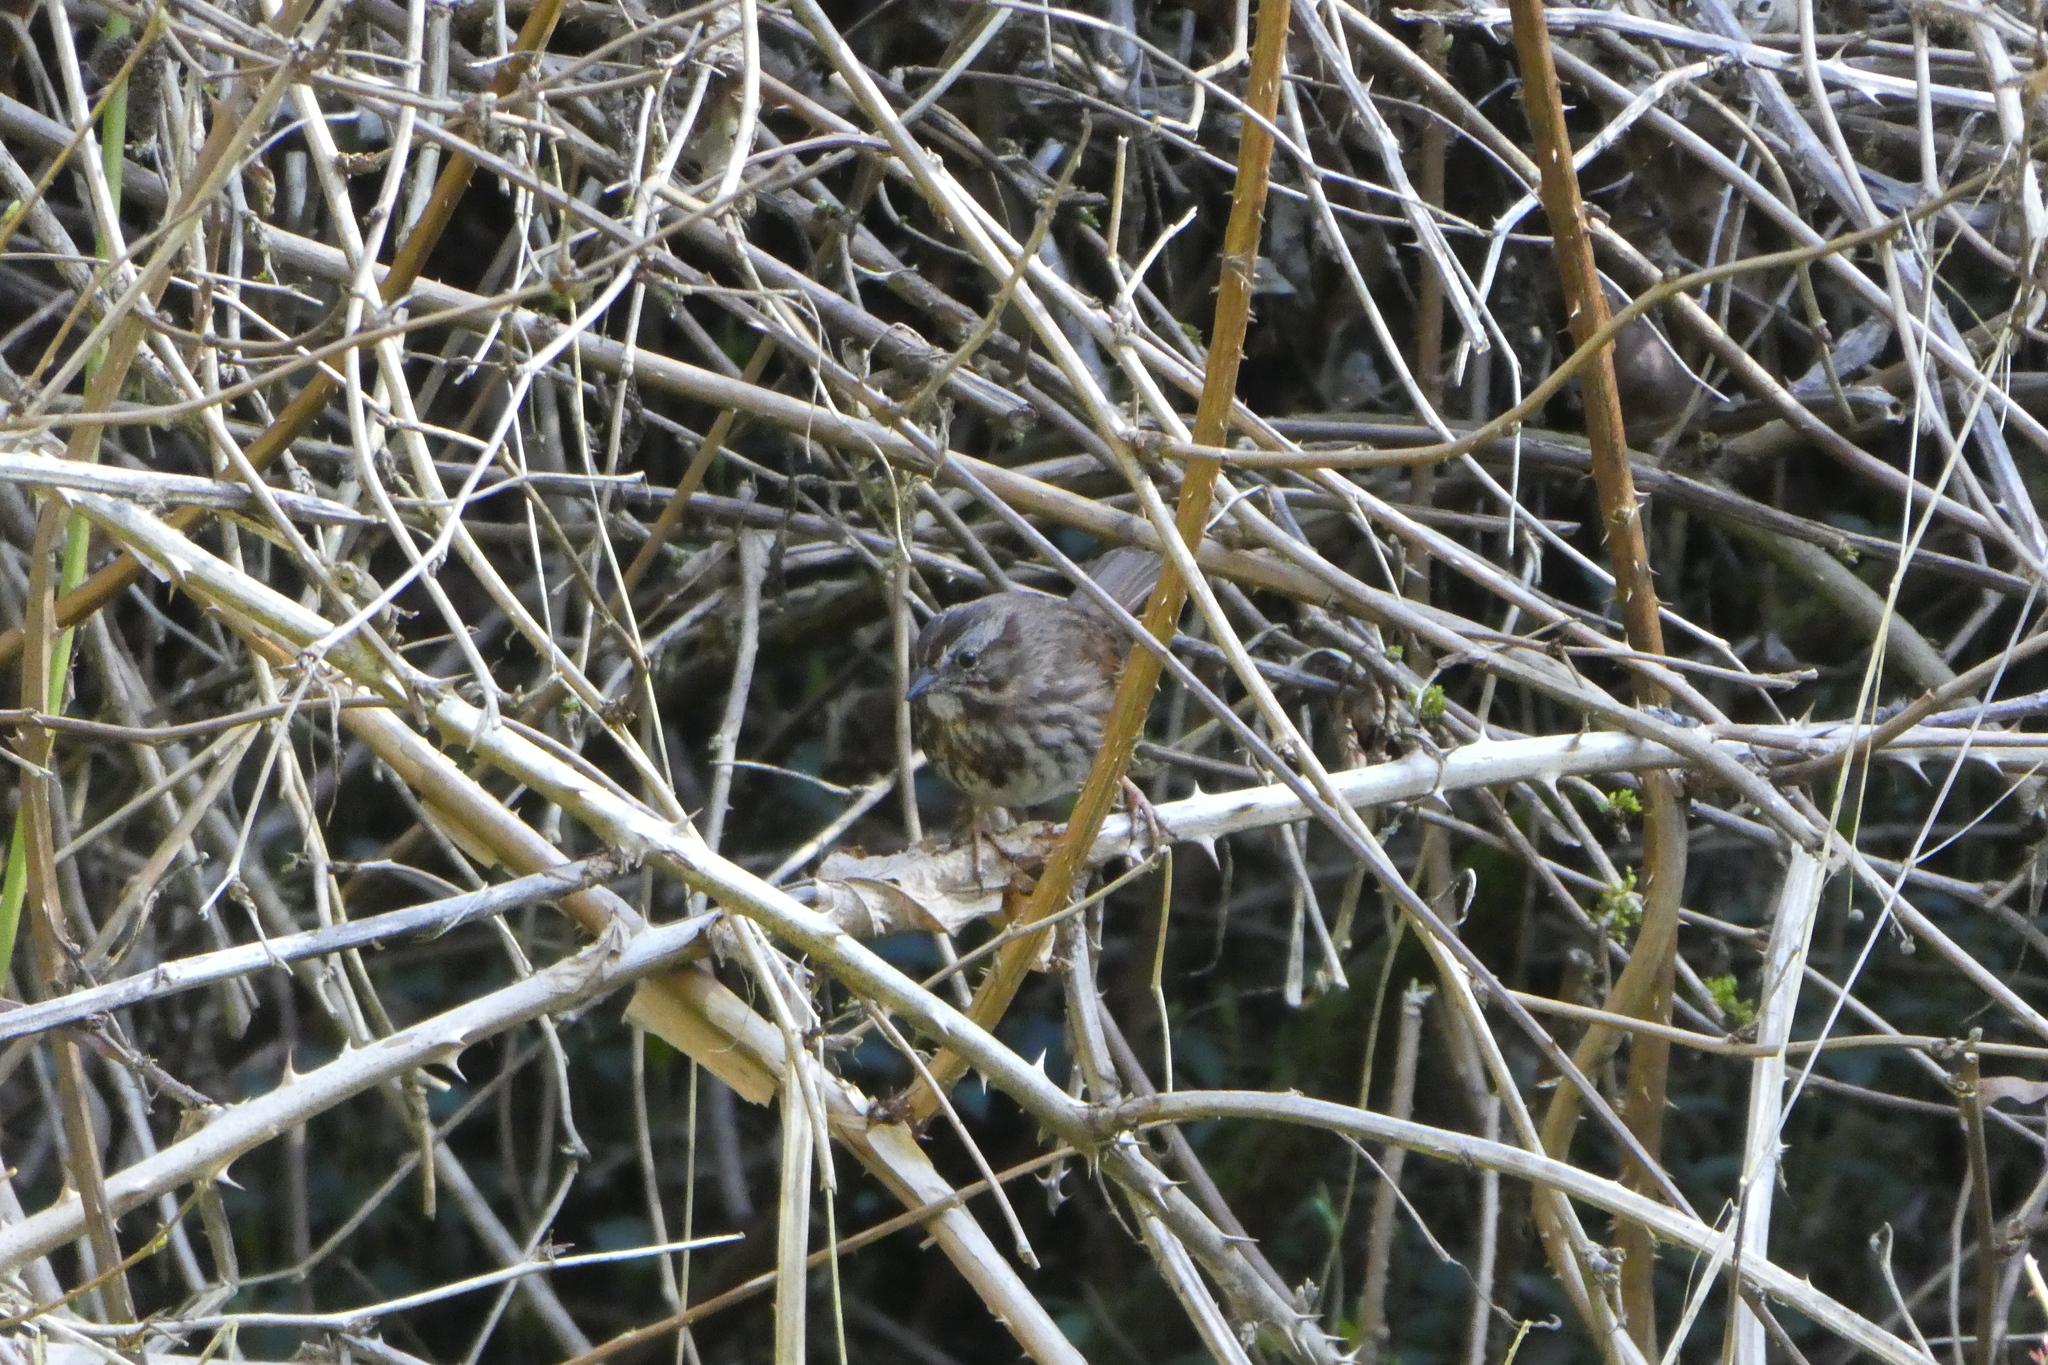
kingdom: Animalia
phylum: Chordata
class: Aves
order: Passeriformes
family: Passerellidae
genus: Melospiza
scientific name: Melospiza melodia
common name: Song sparrow
